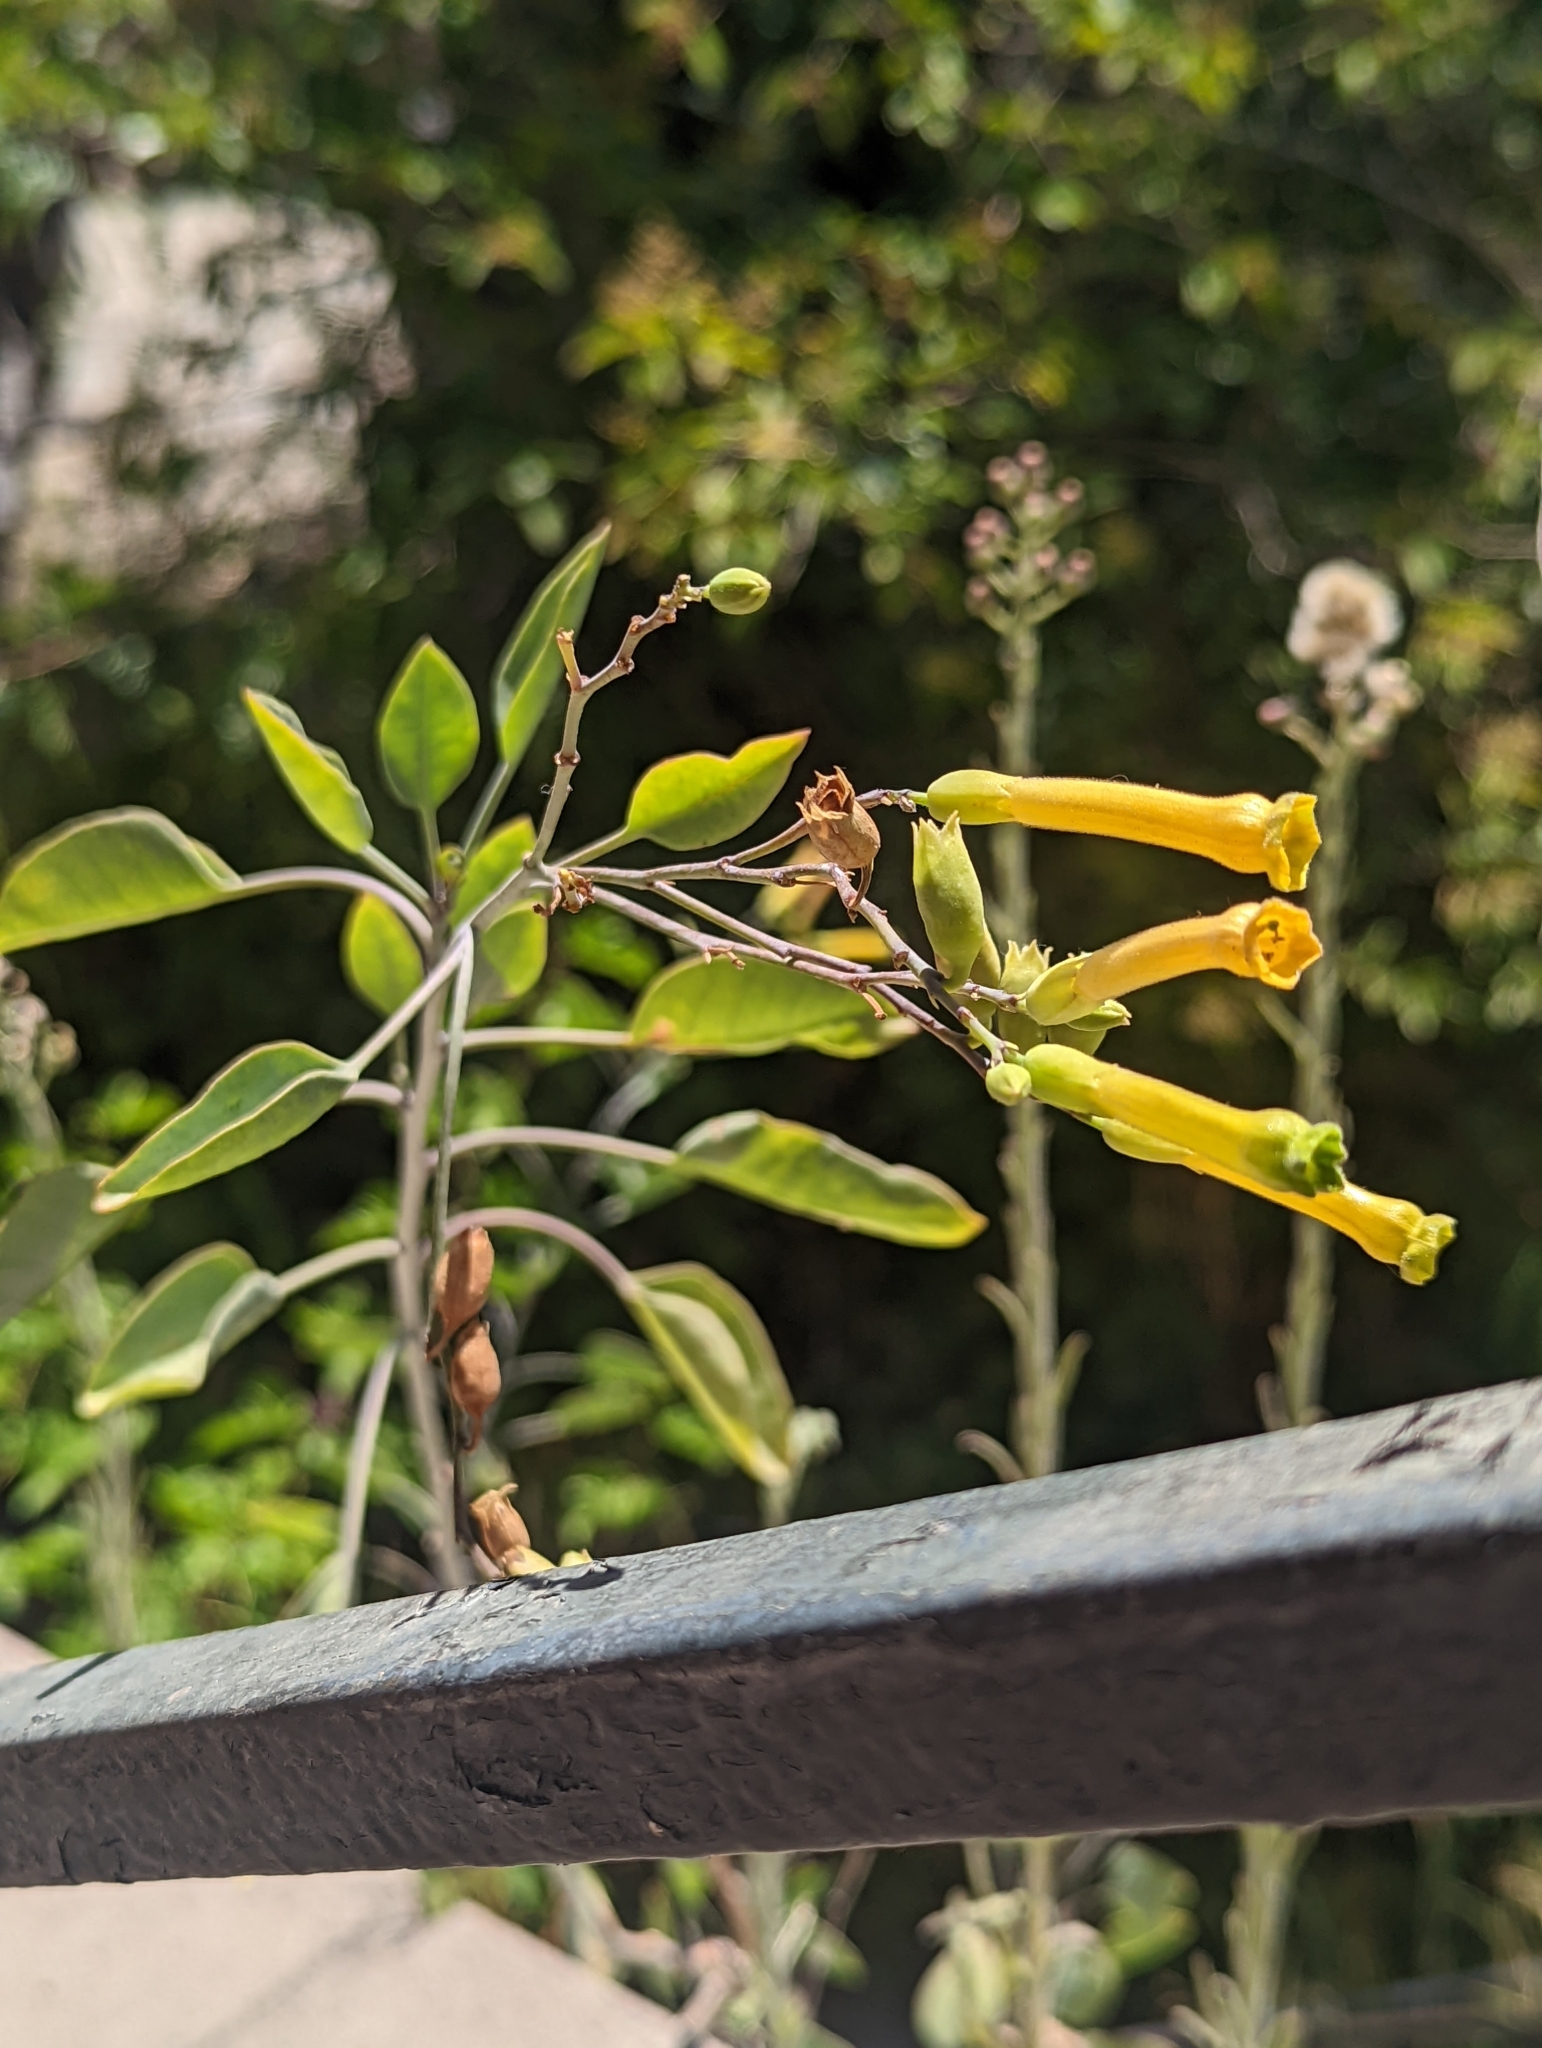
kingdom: Plantae
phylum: Tracheophyta
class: Magnoliopsida
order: Solanales
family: Solanaceae
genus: Nicotiana
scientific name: Nicotiana glauca
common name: Tree tobacco
